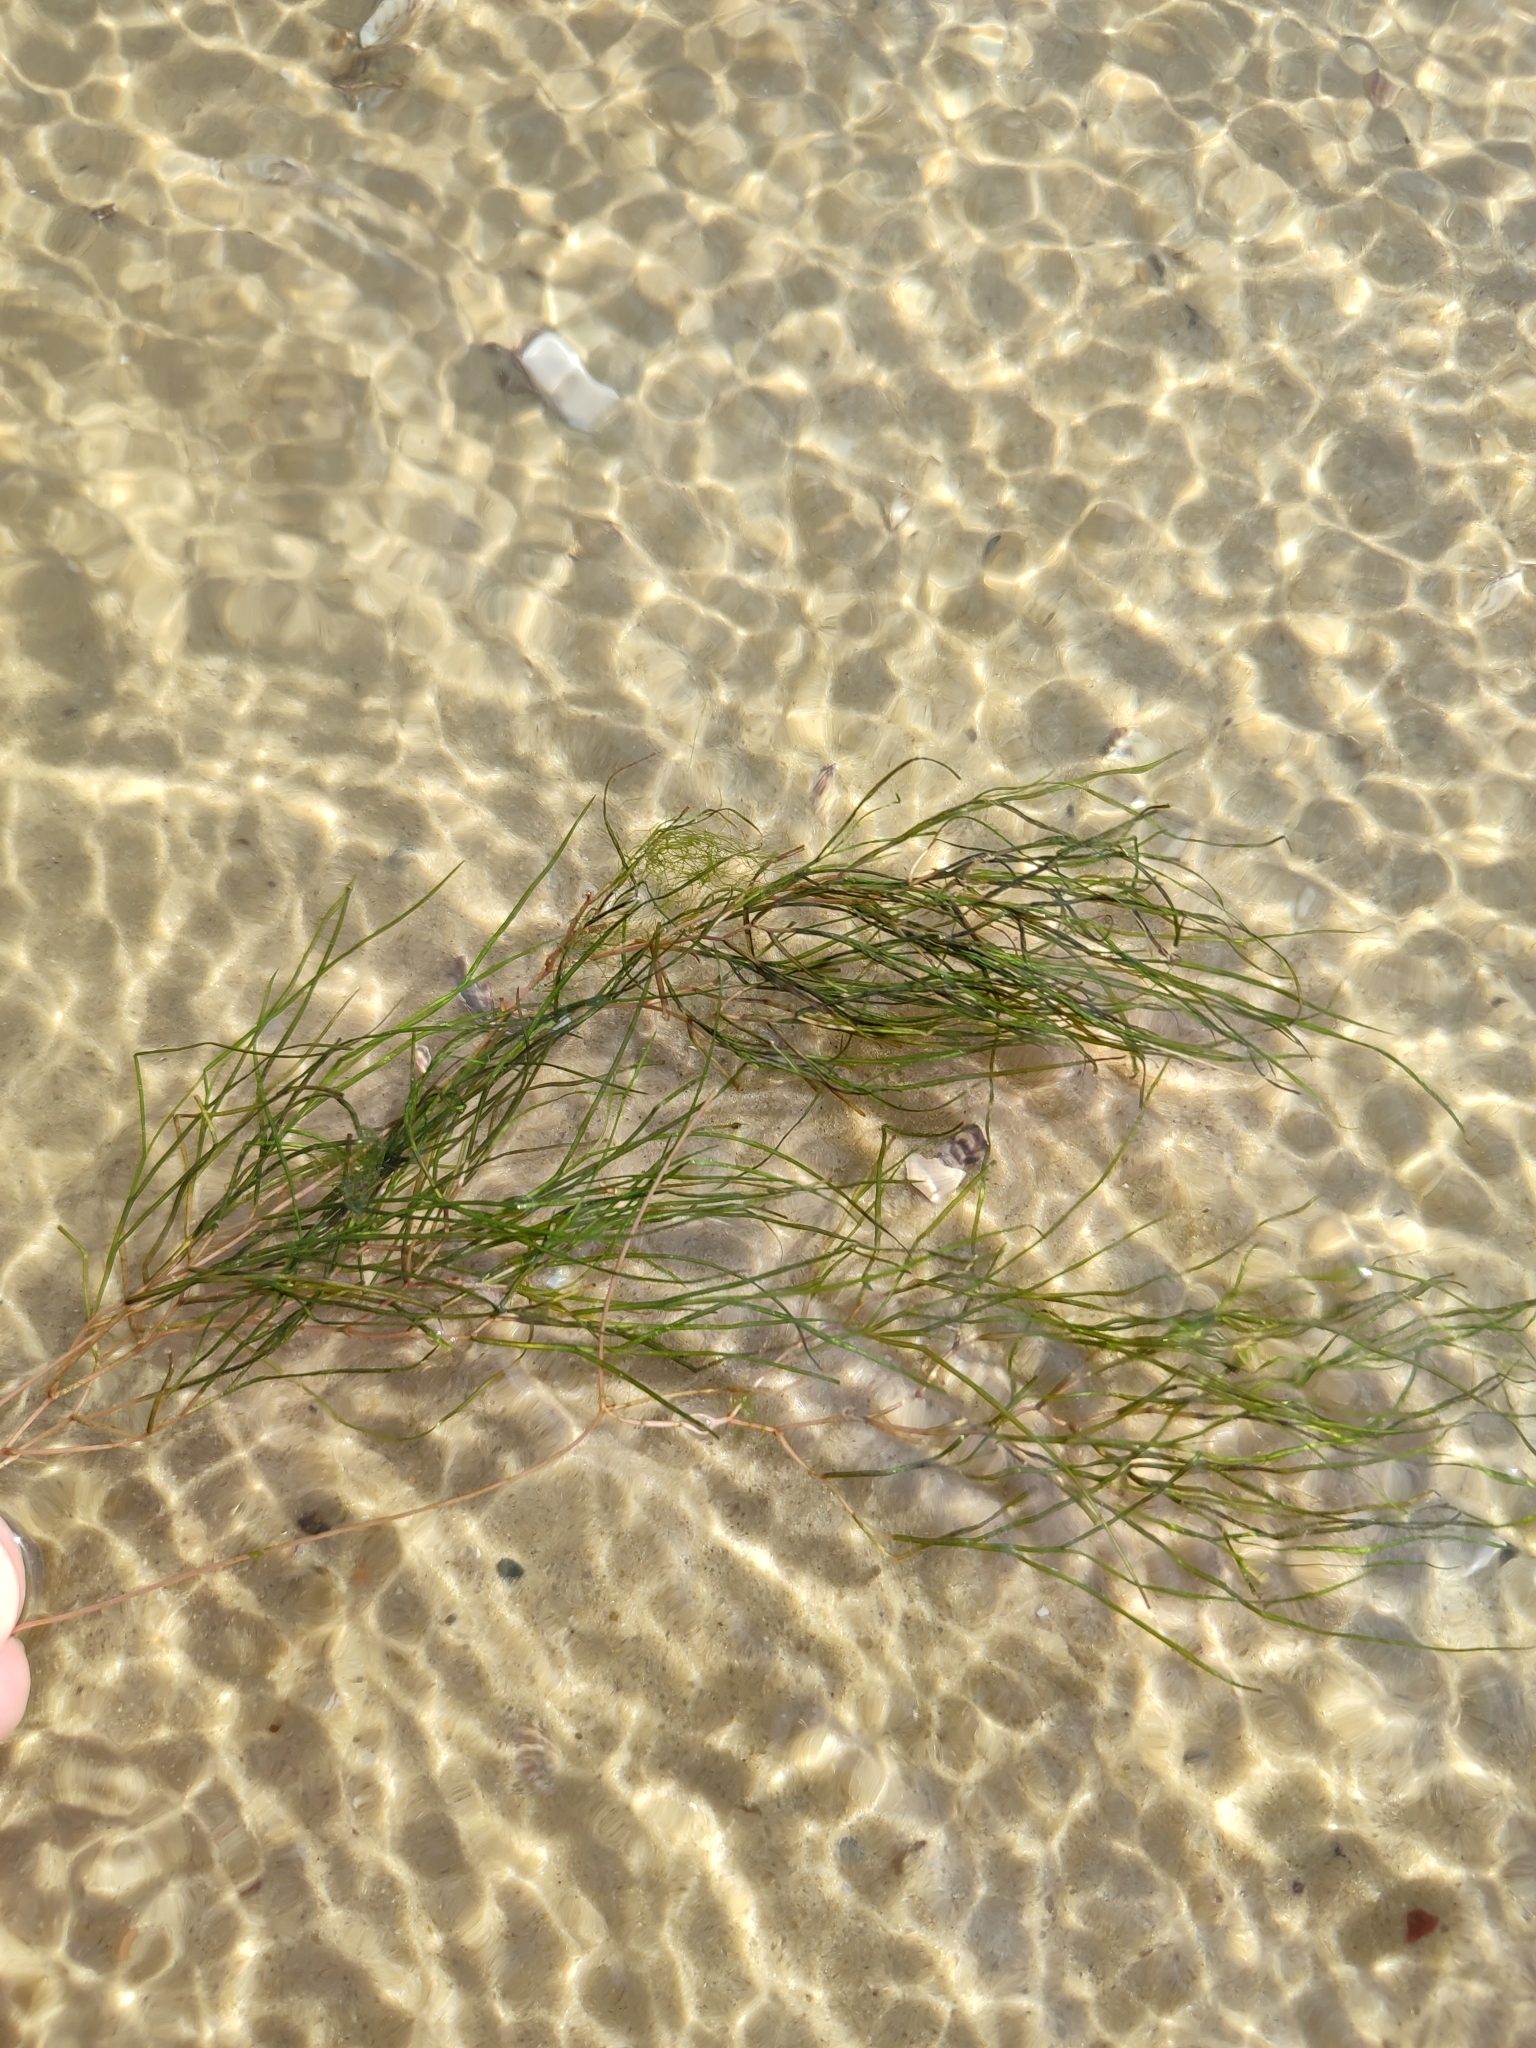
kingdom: Plantae
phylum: Tracheophyta
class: Liliopsida
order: Alismatales
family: Potamogetonaceae
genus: Stuckenia
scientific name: Stuckenia pectinata
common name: Sago pondweed
